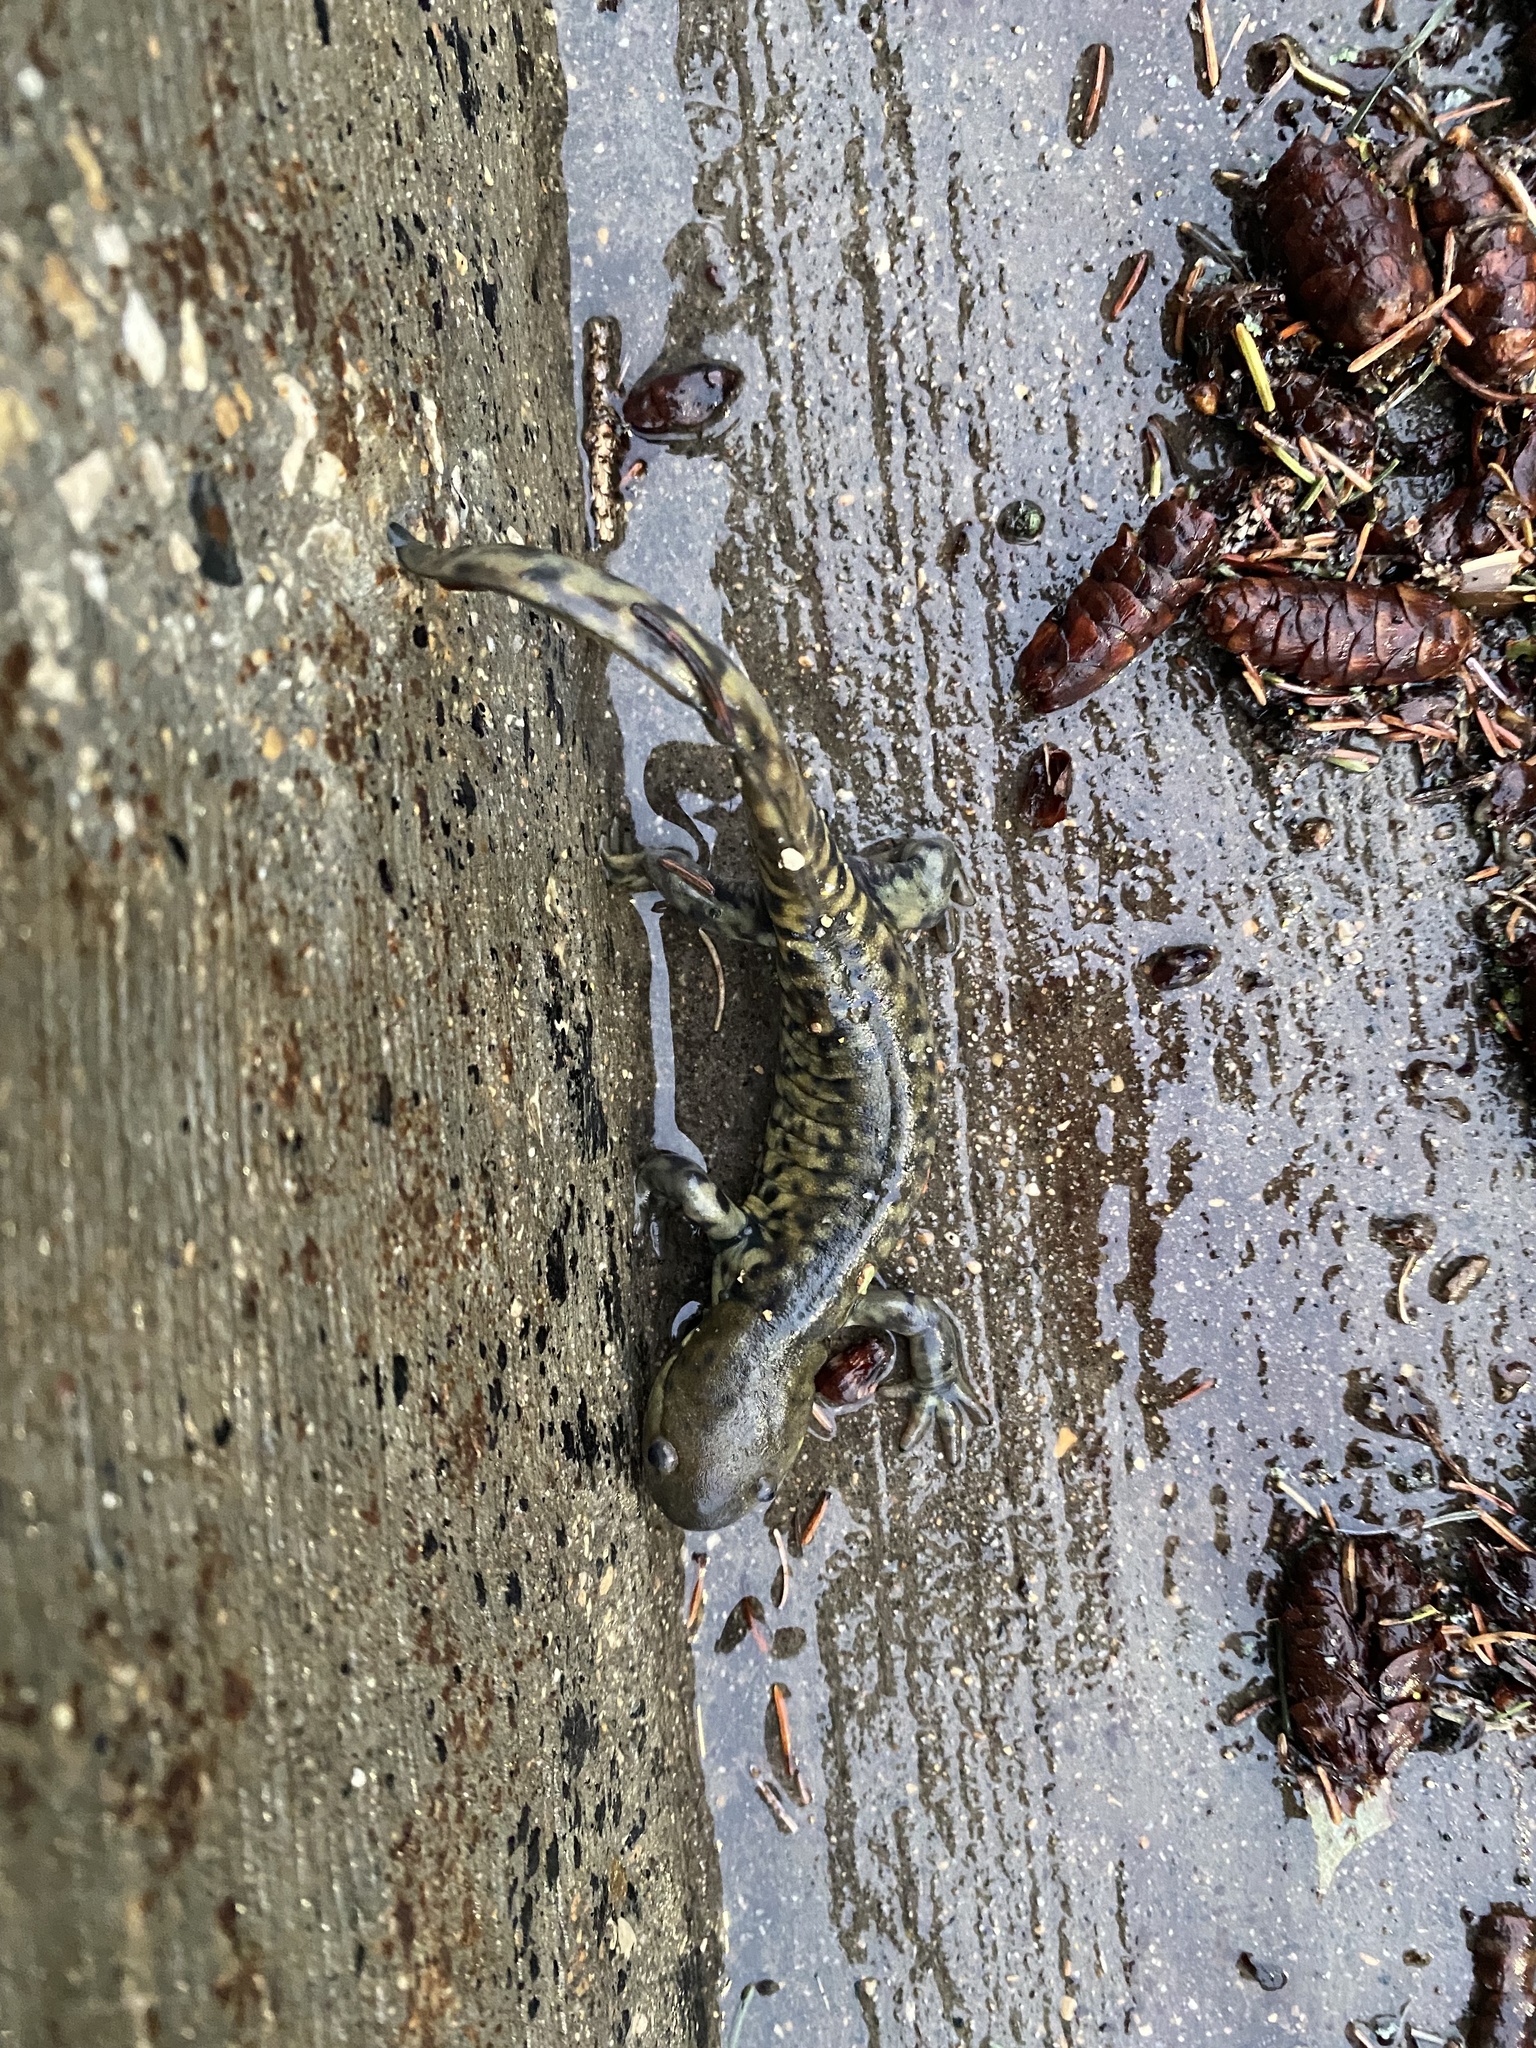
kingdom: Animalia
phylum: Chordata
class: Amphibia
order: Caudata
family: Ambystomatidae
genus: Ambystoma
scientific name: Ambystoma mavortium
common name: Western tiger salamander
